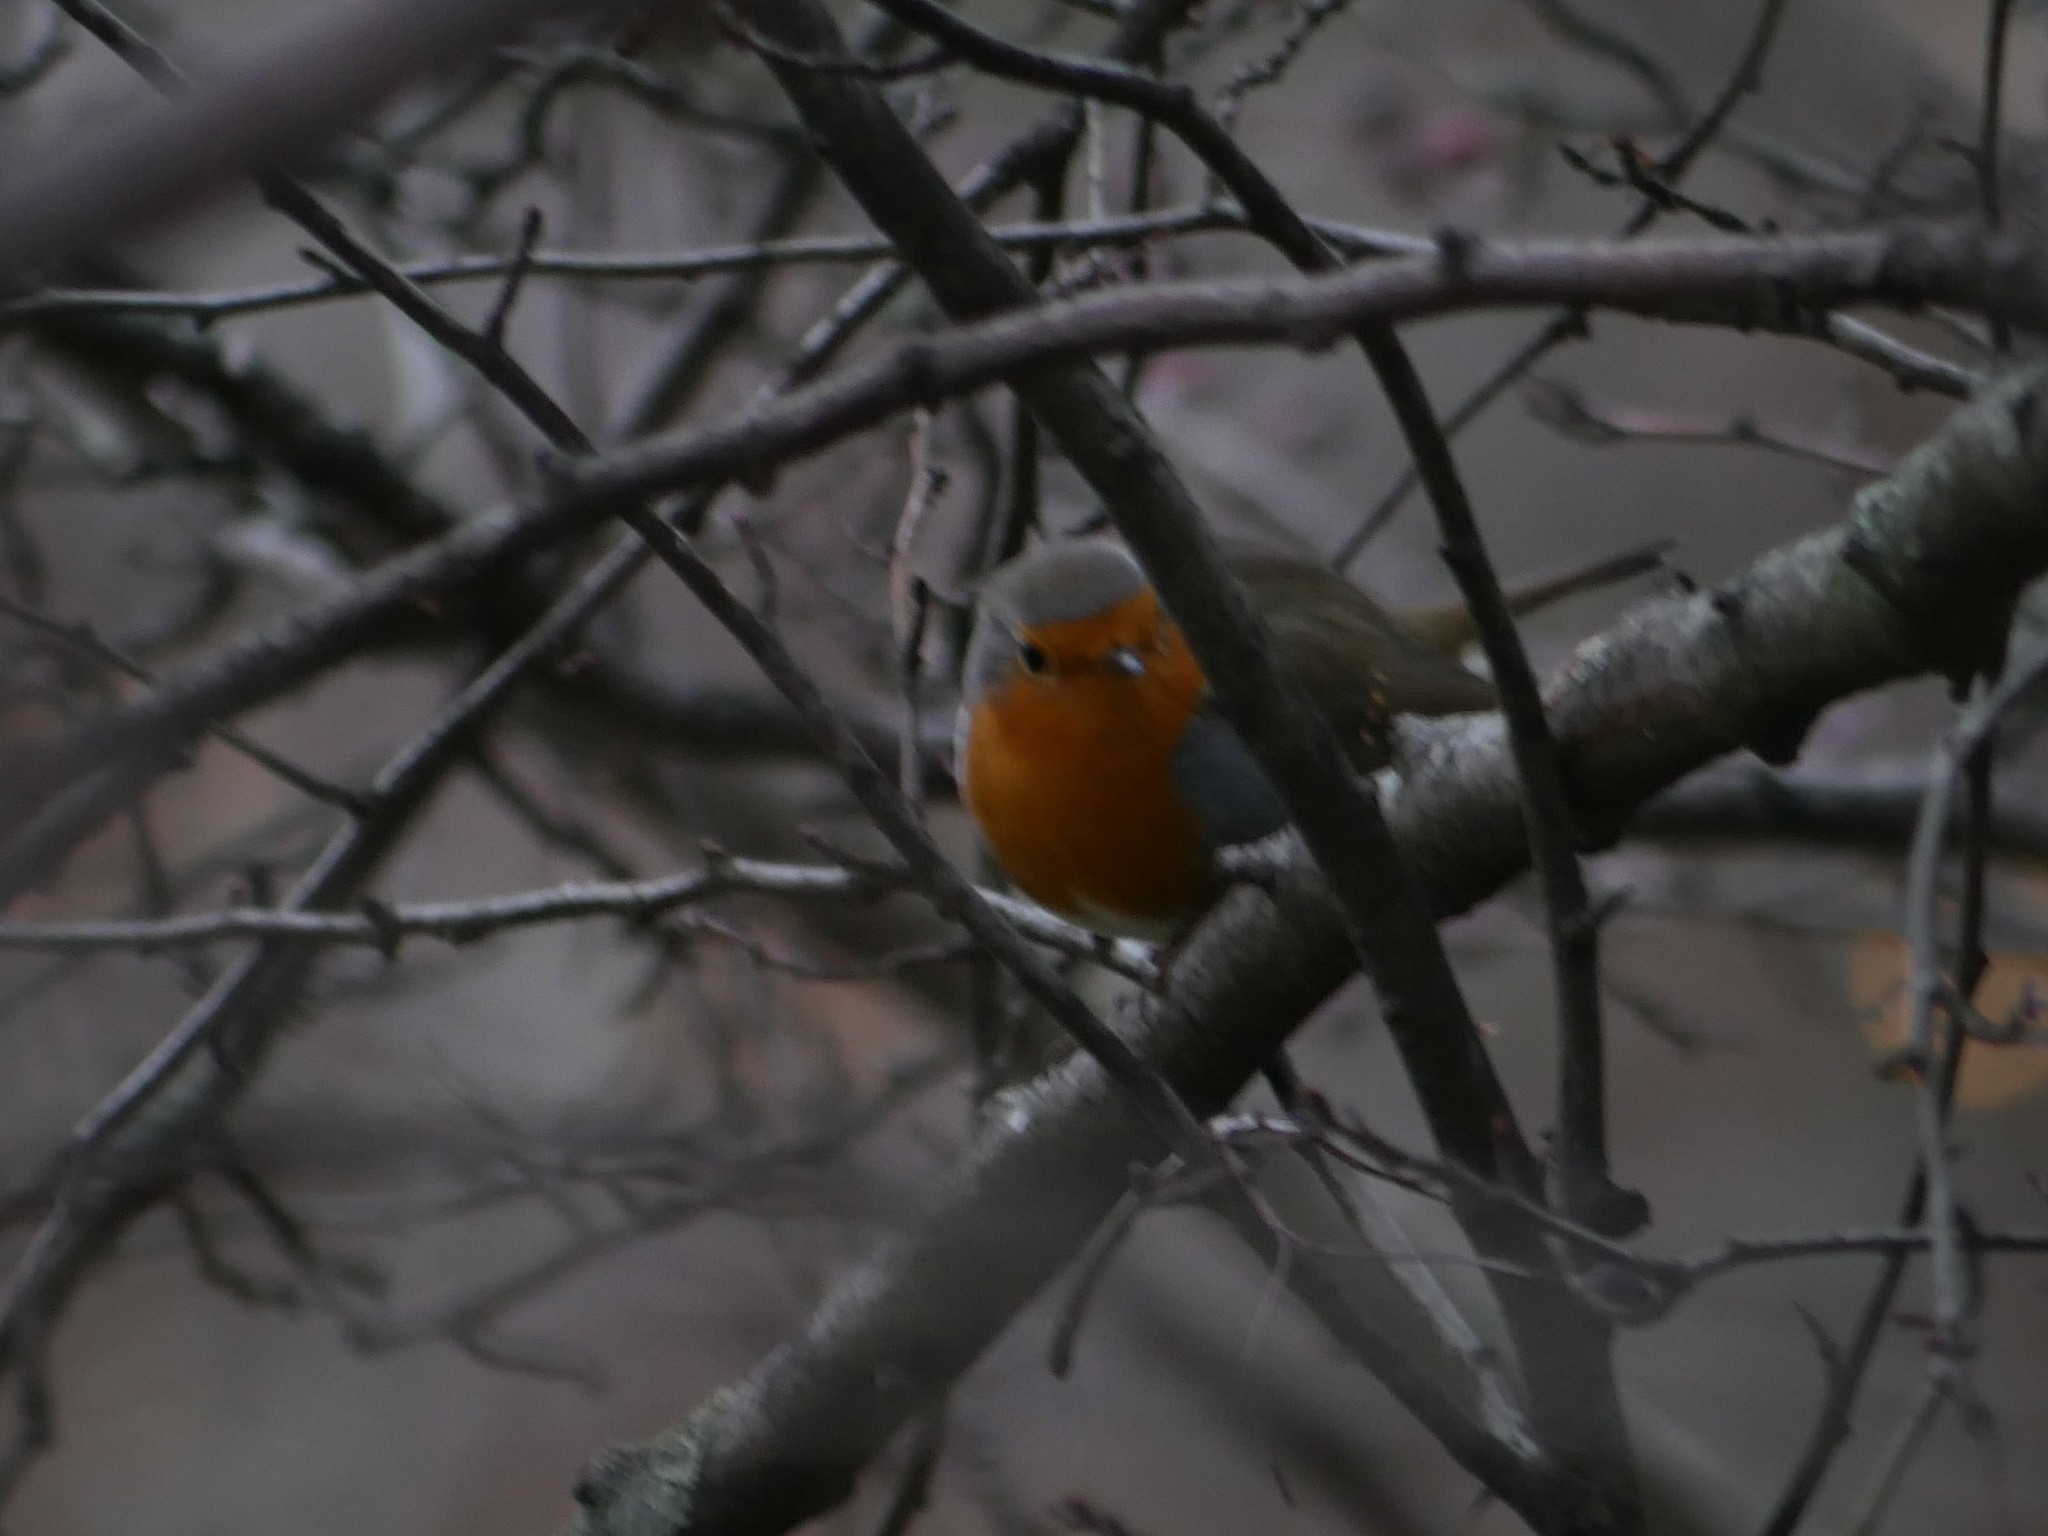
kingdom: Animalia
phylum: Chordata
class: Aves
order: Passeriformes
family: Muscicapidae
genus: Erithacus
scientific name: Erithacus rubecula
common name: European robin
